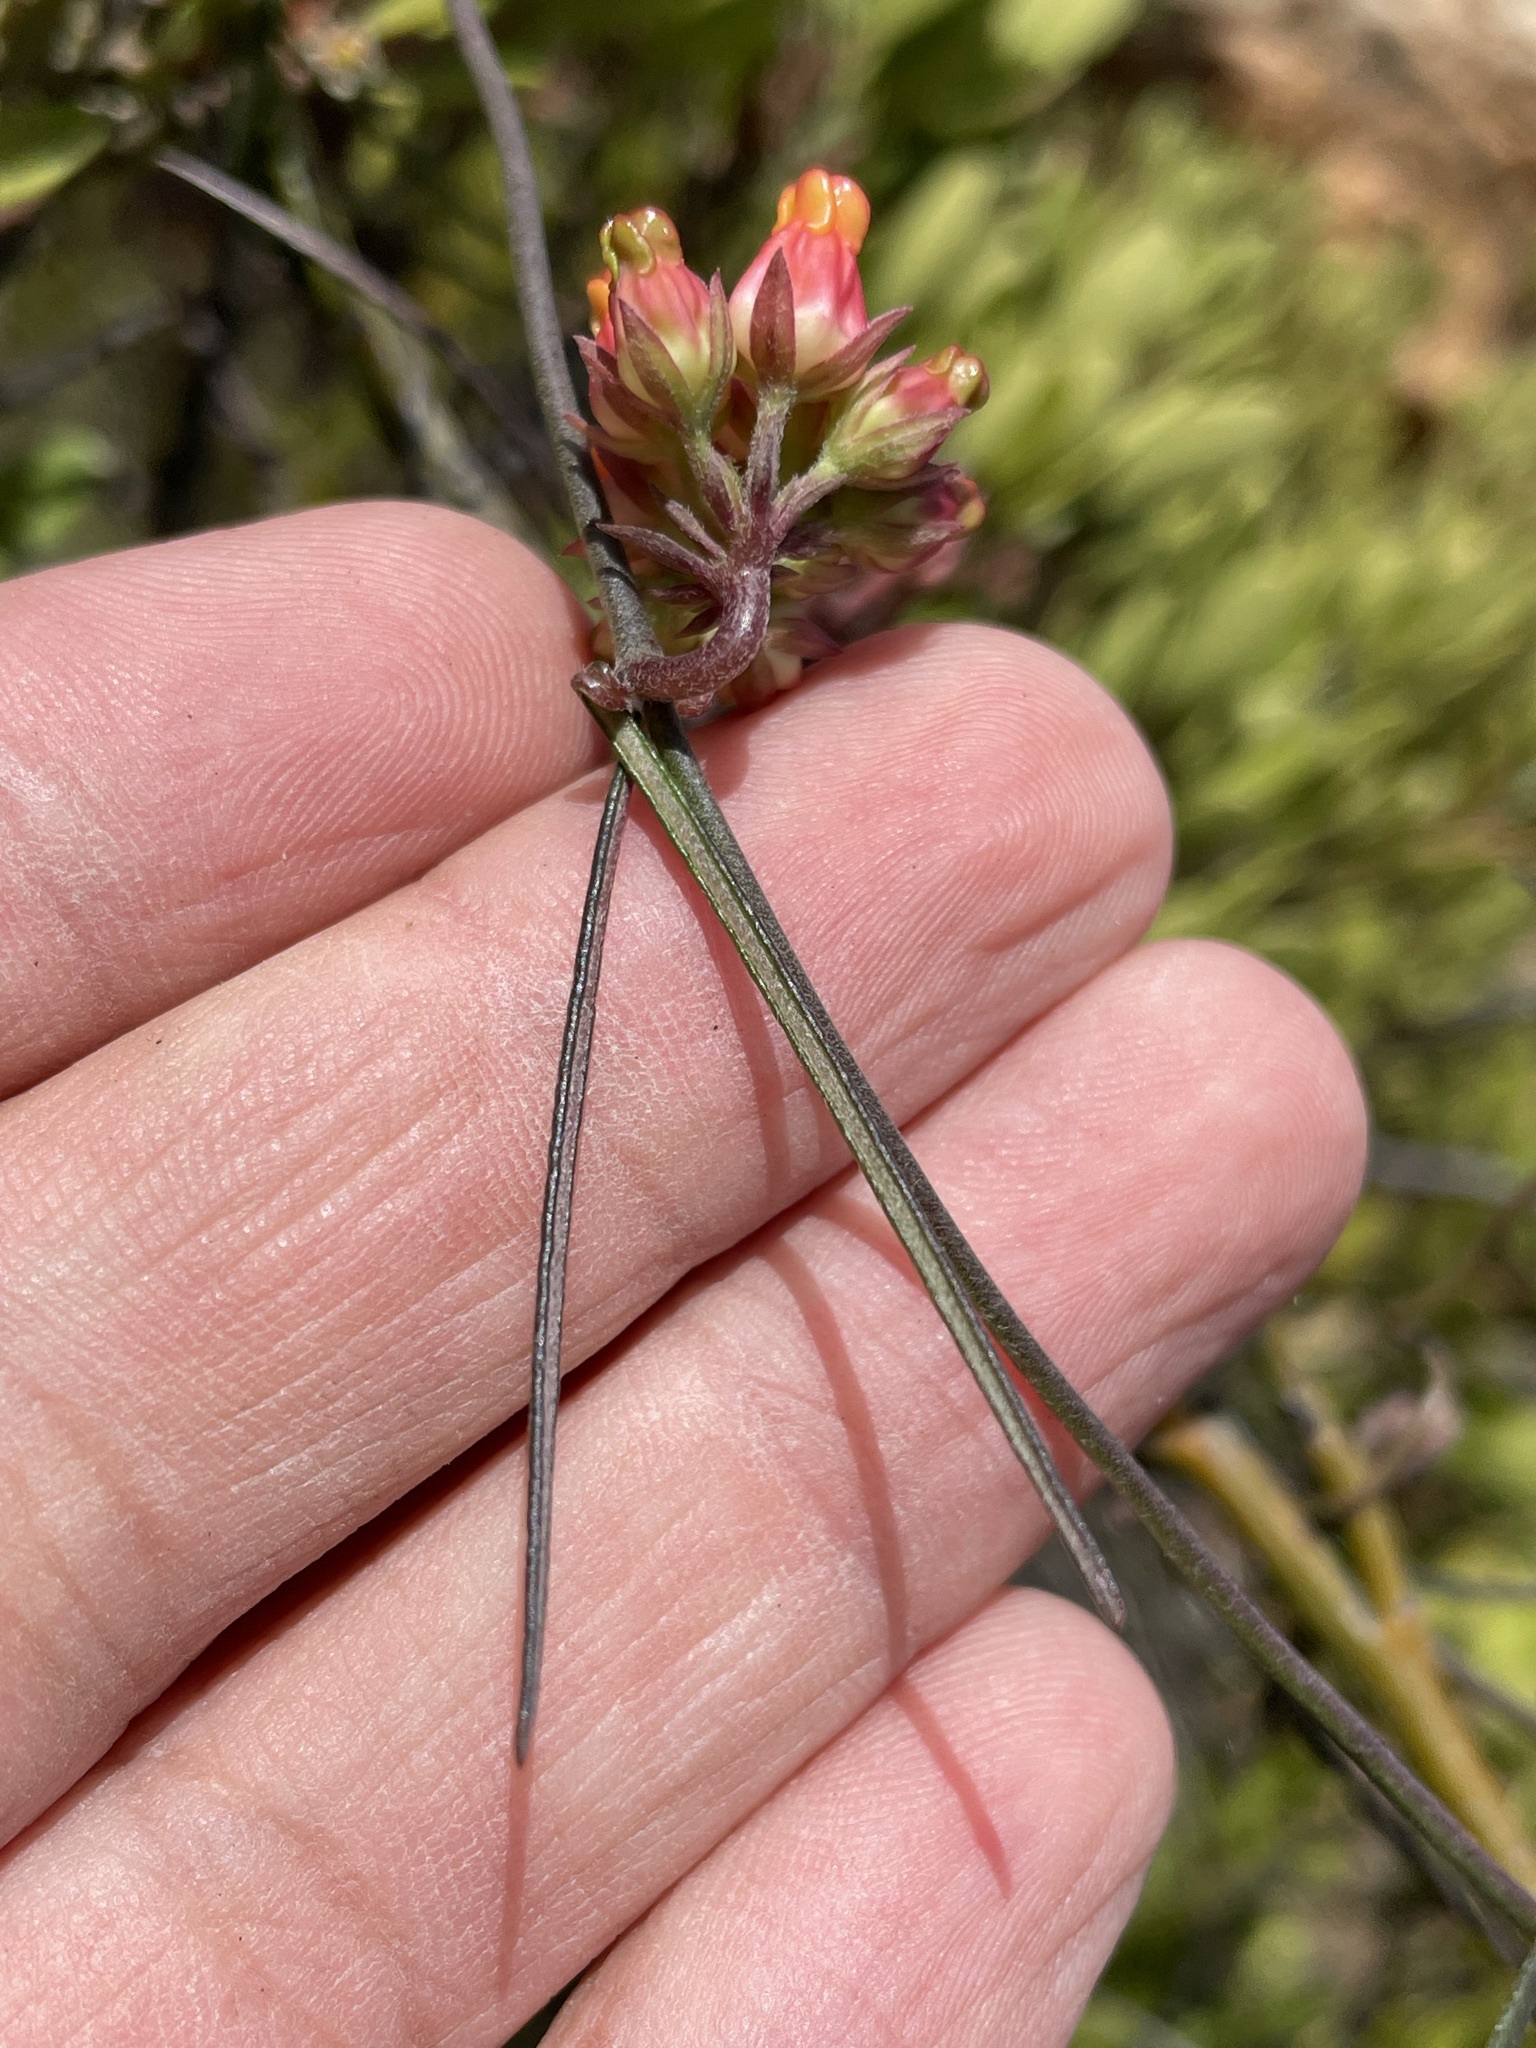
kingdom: Plantae
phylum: Tracheophyta
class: Magnoliopsida
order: Gentianales
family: Apocynaceae
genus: Microloma
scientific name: Microloma tenuifolium
